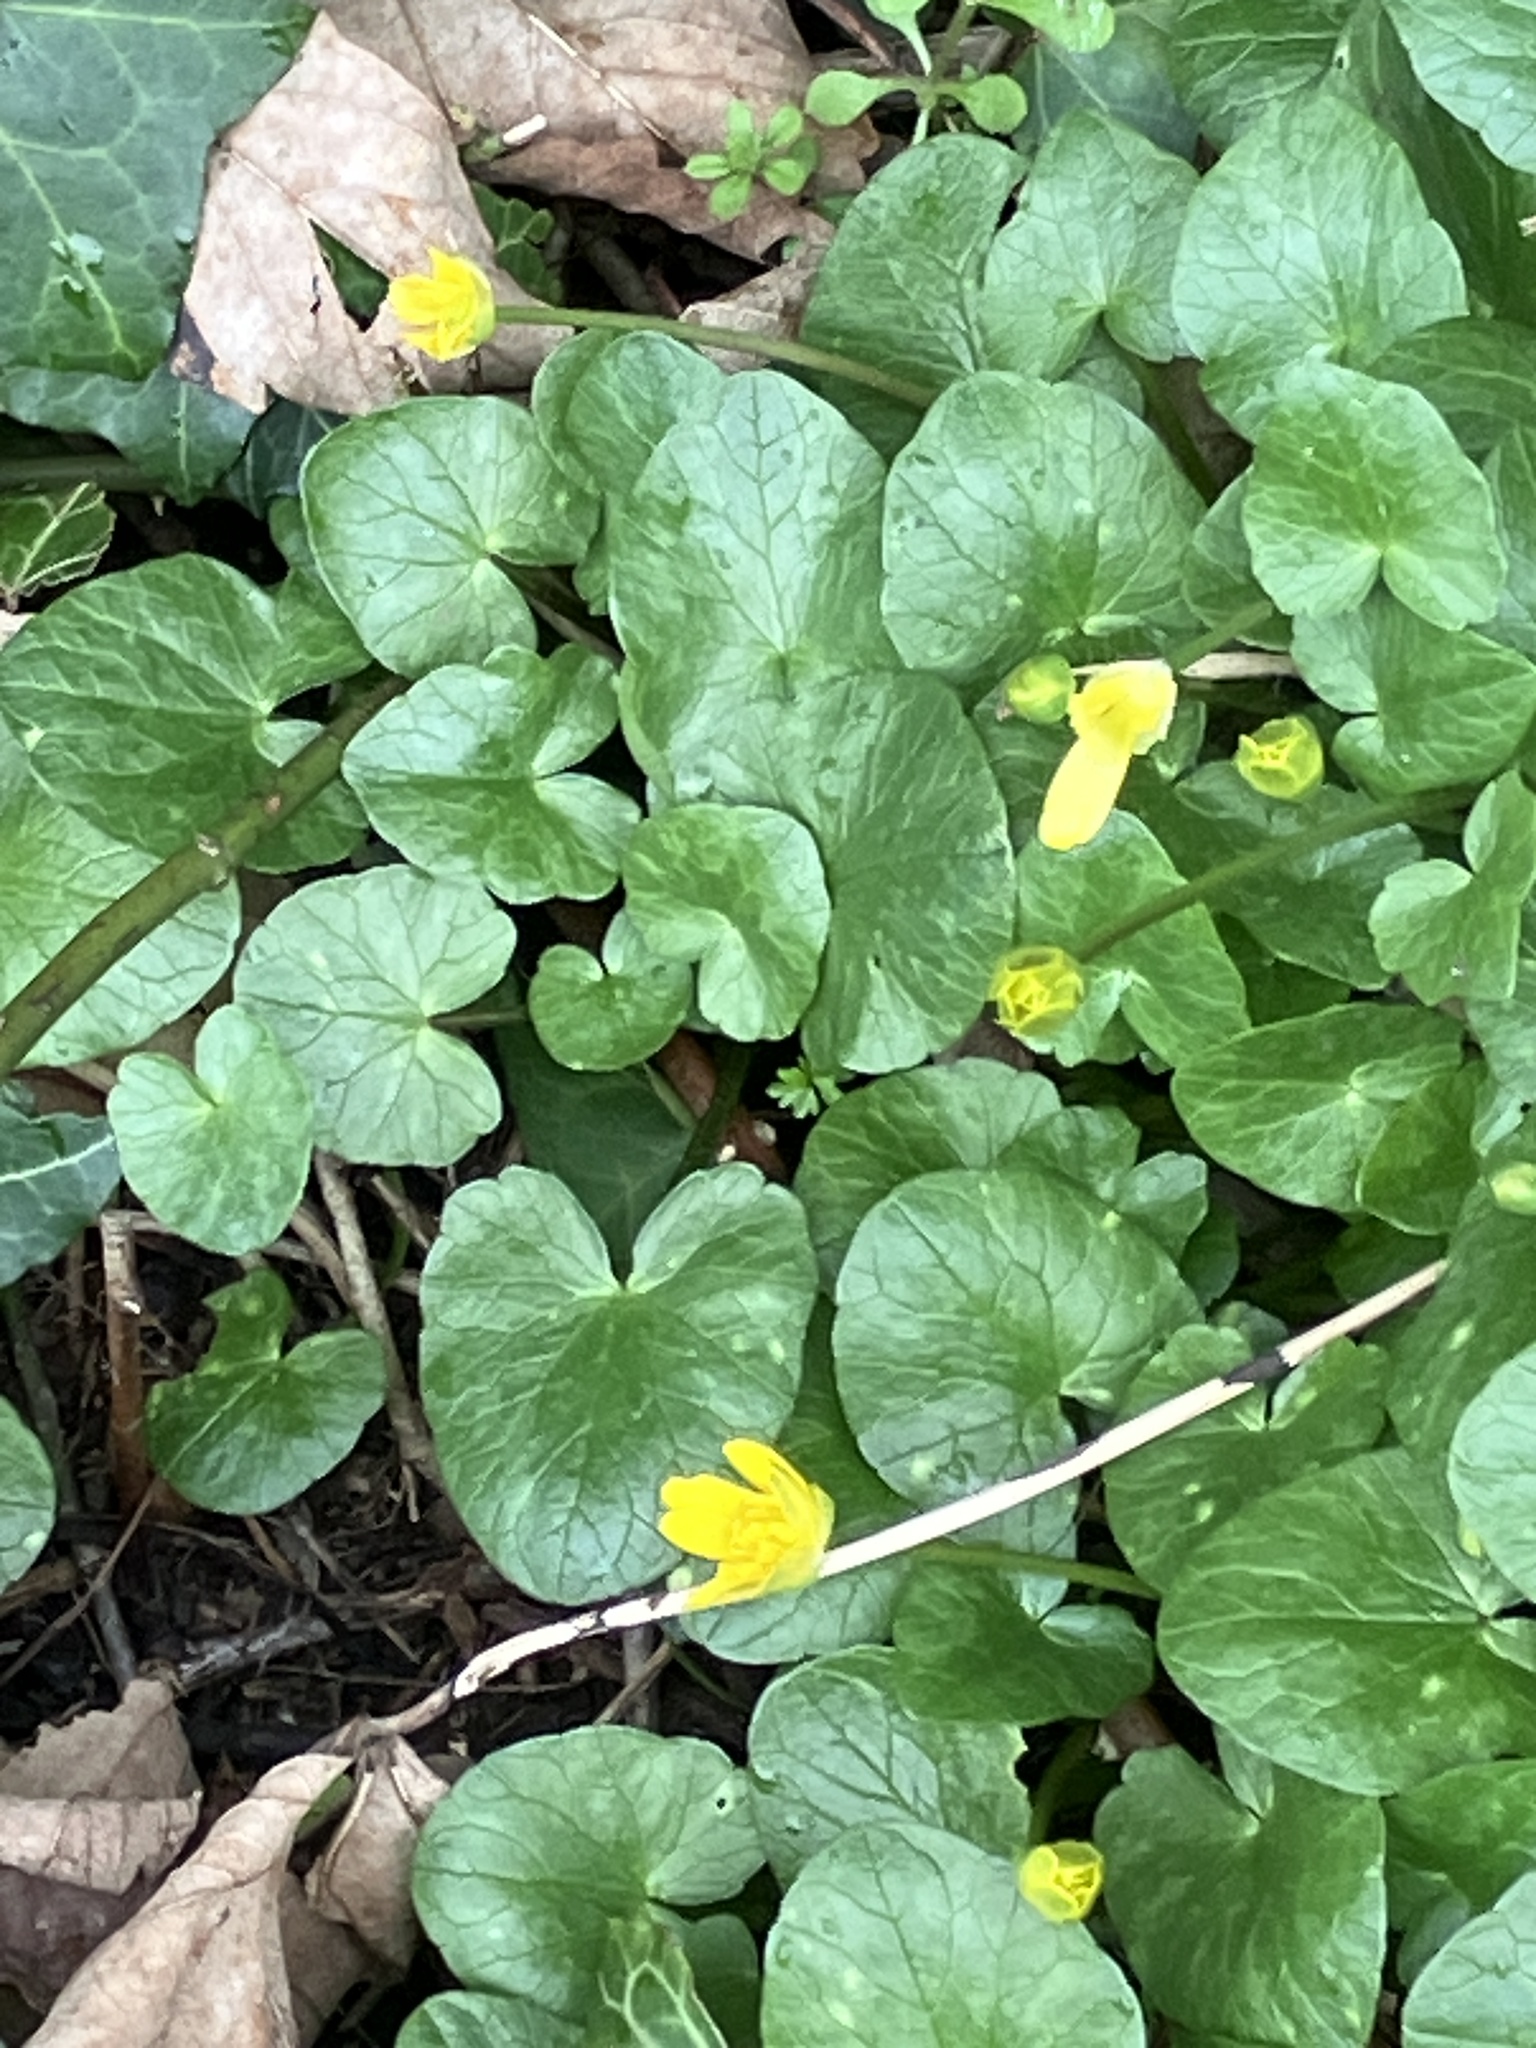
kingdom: Plantae
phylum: Tracheophyta
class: Magnoliopsida
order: Ranunculales
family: Ranunculaceae
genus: Ficaria
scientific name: Ficaria verna
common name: Lesser celandine
